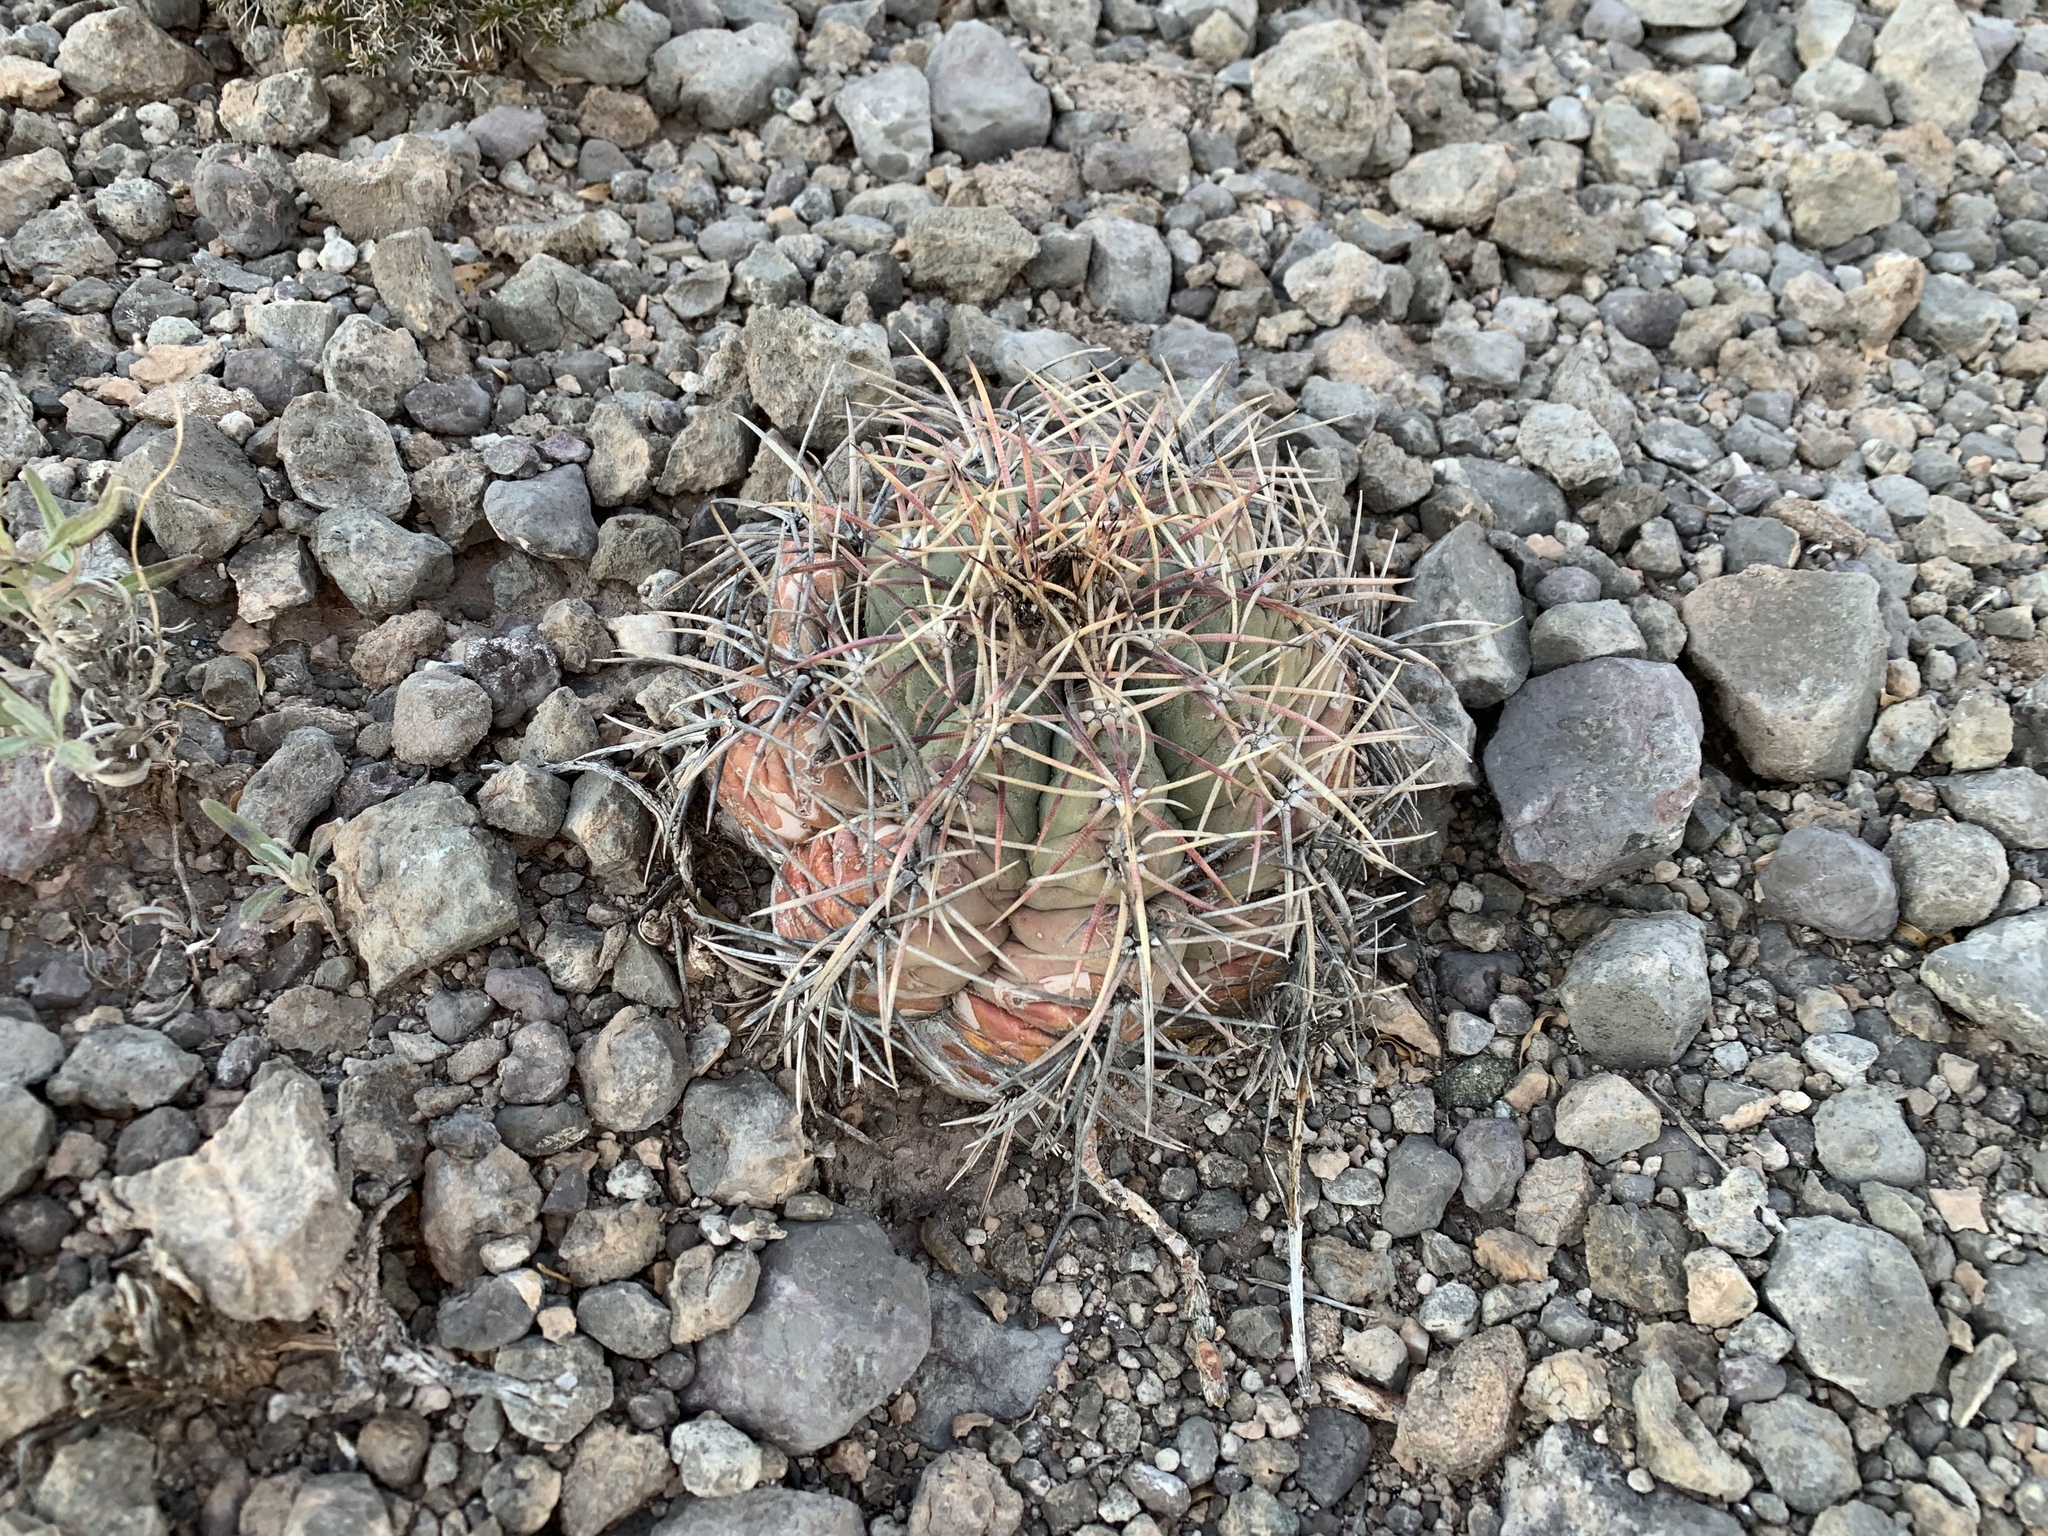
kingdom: Plantae
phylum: Tracheophyta
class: Magnoliopsida
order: Caryophyllales
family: Cactaceae
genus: Echinocactus
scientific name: Echinocactus horizonthalonius
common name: Devilshead
